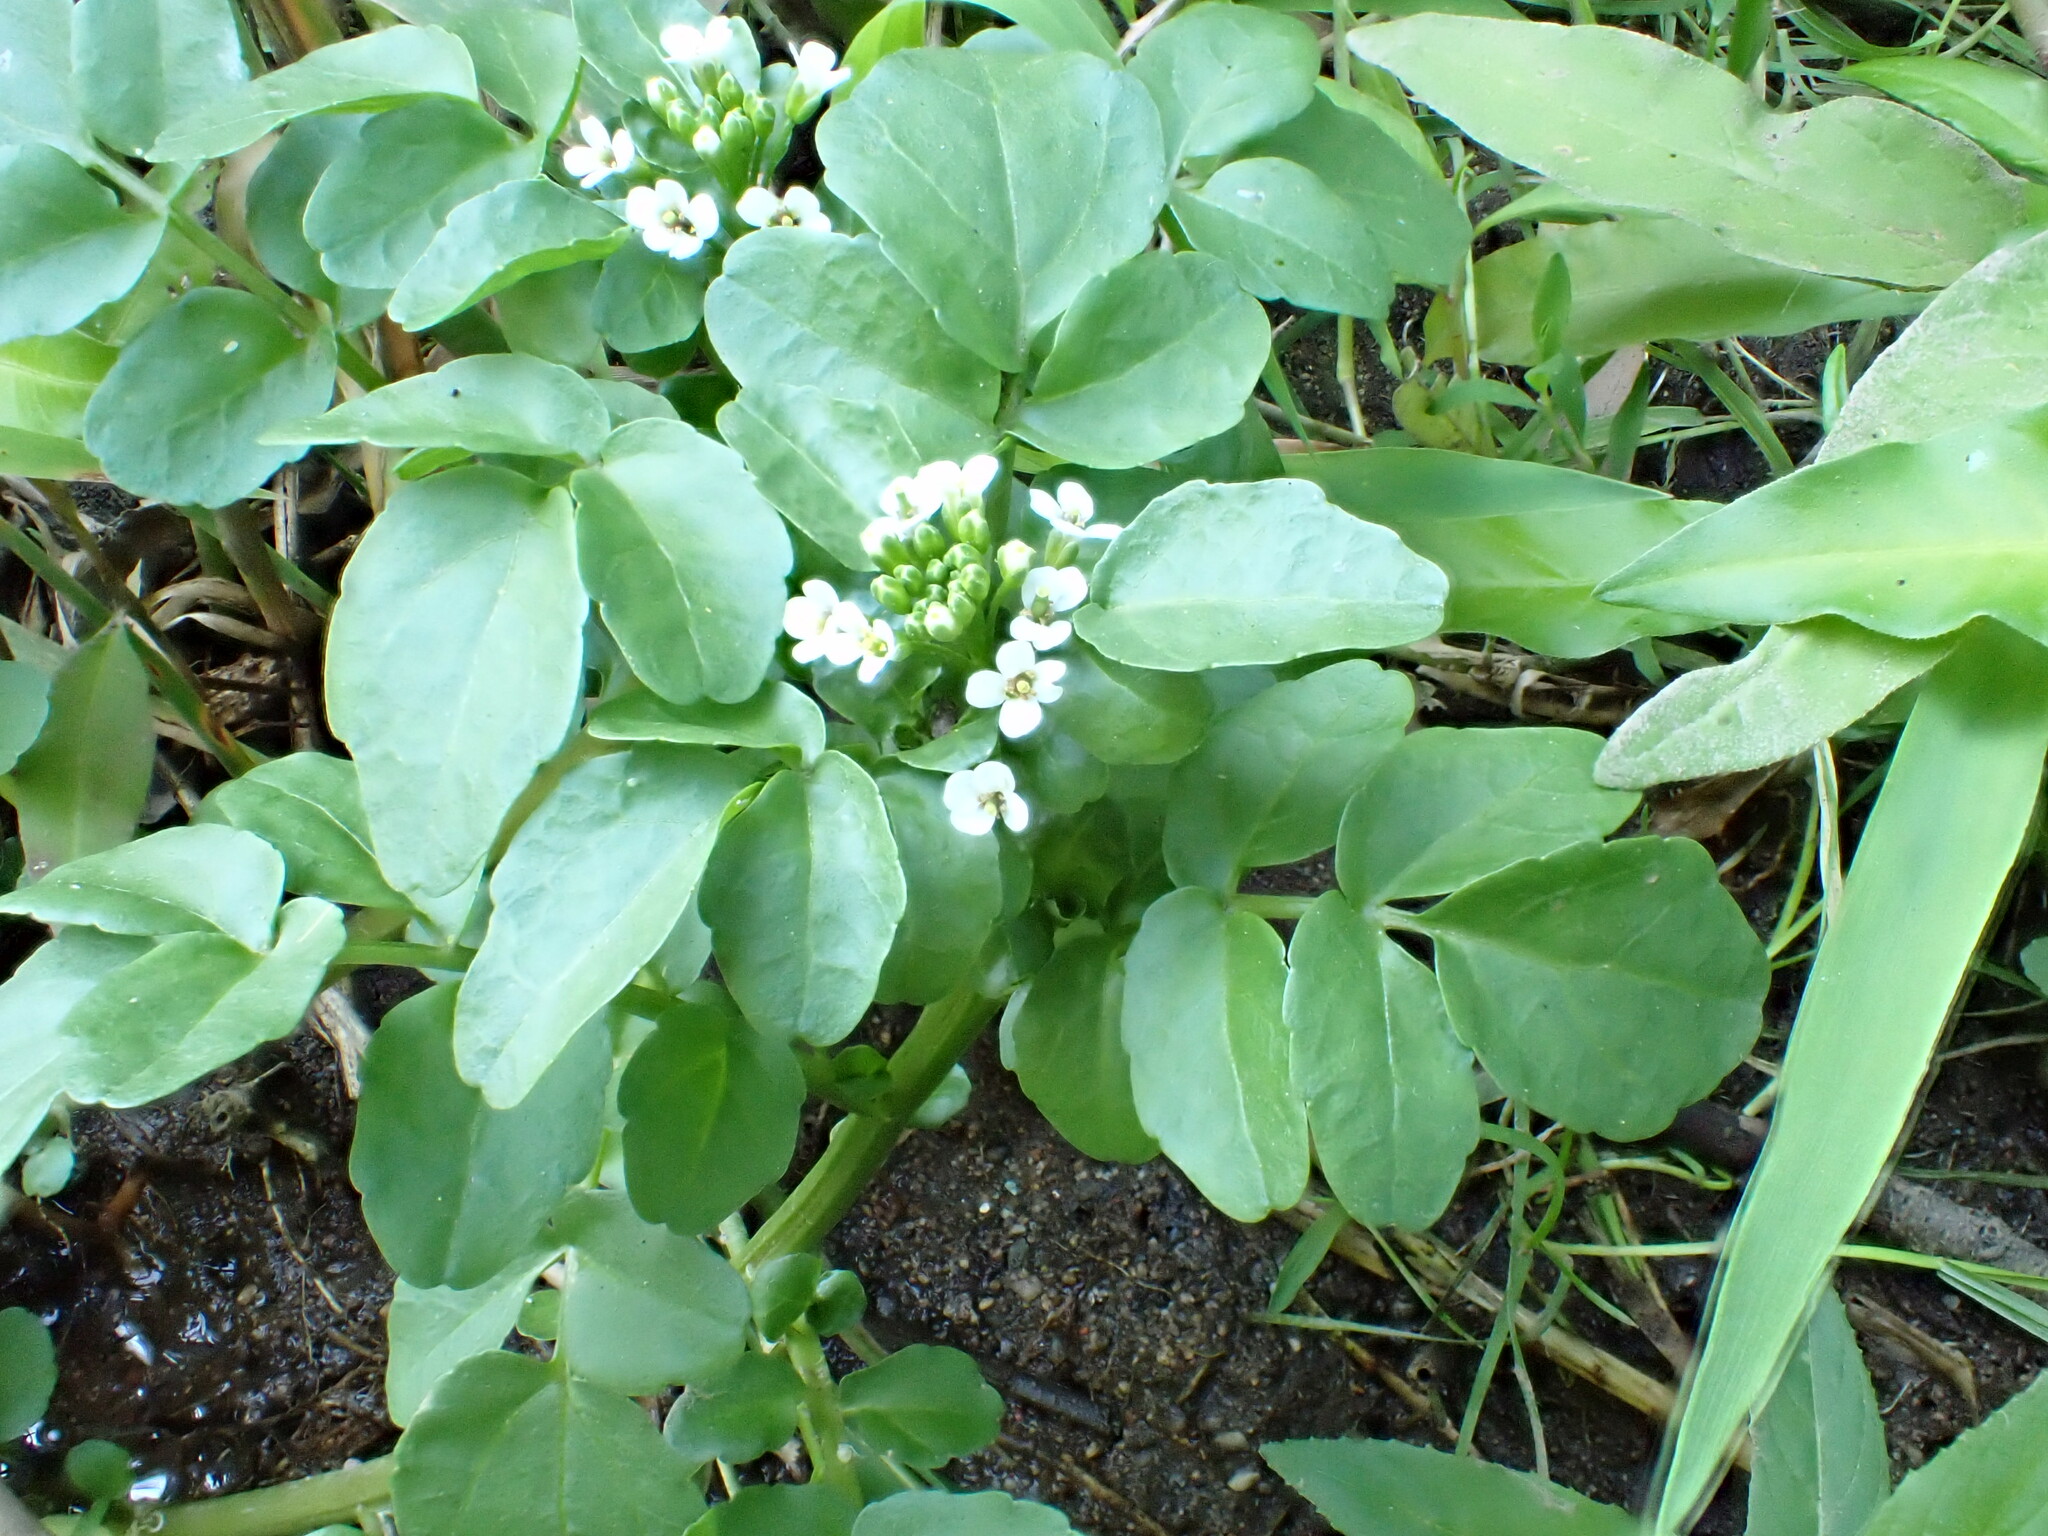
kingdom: Plantae
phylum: Tracheophyta
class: Magnoliopsida
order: Brassicales
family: Brassicaceae
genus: Nasturtium
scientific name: Nasturtium officinale
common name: Watercress
